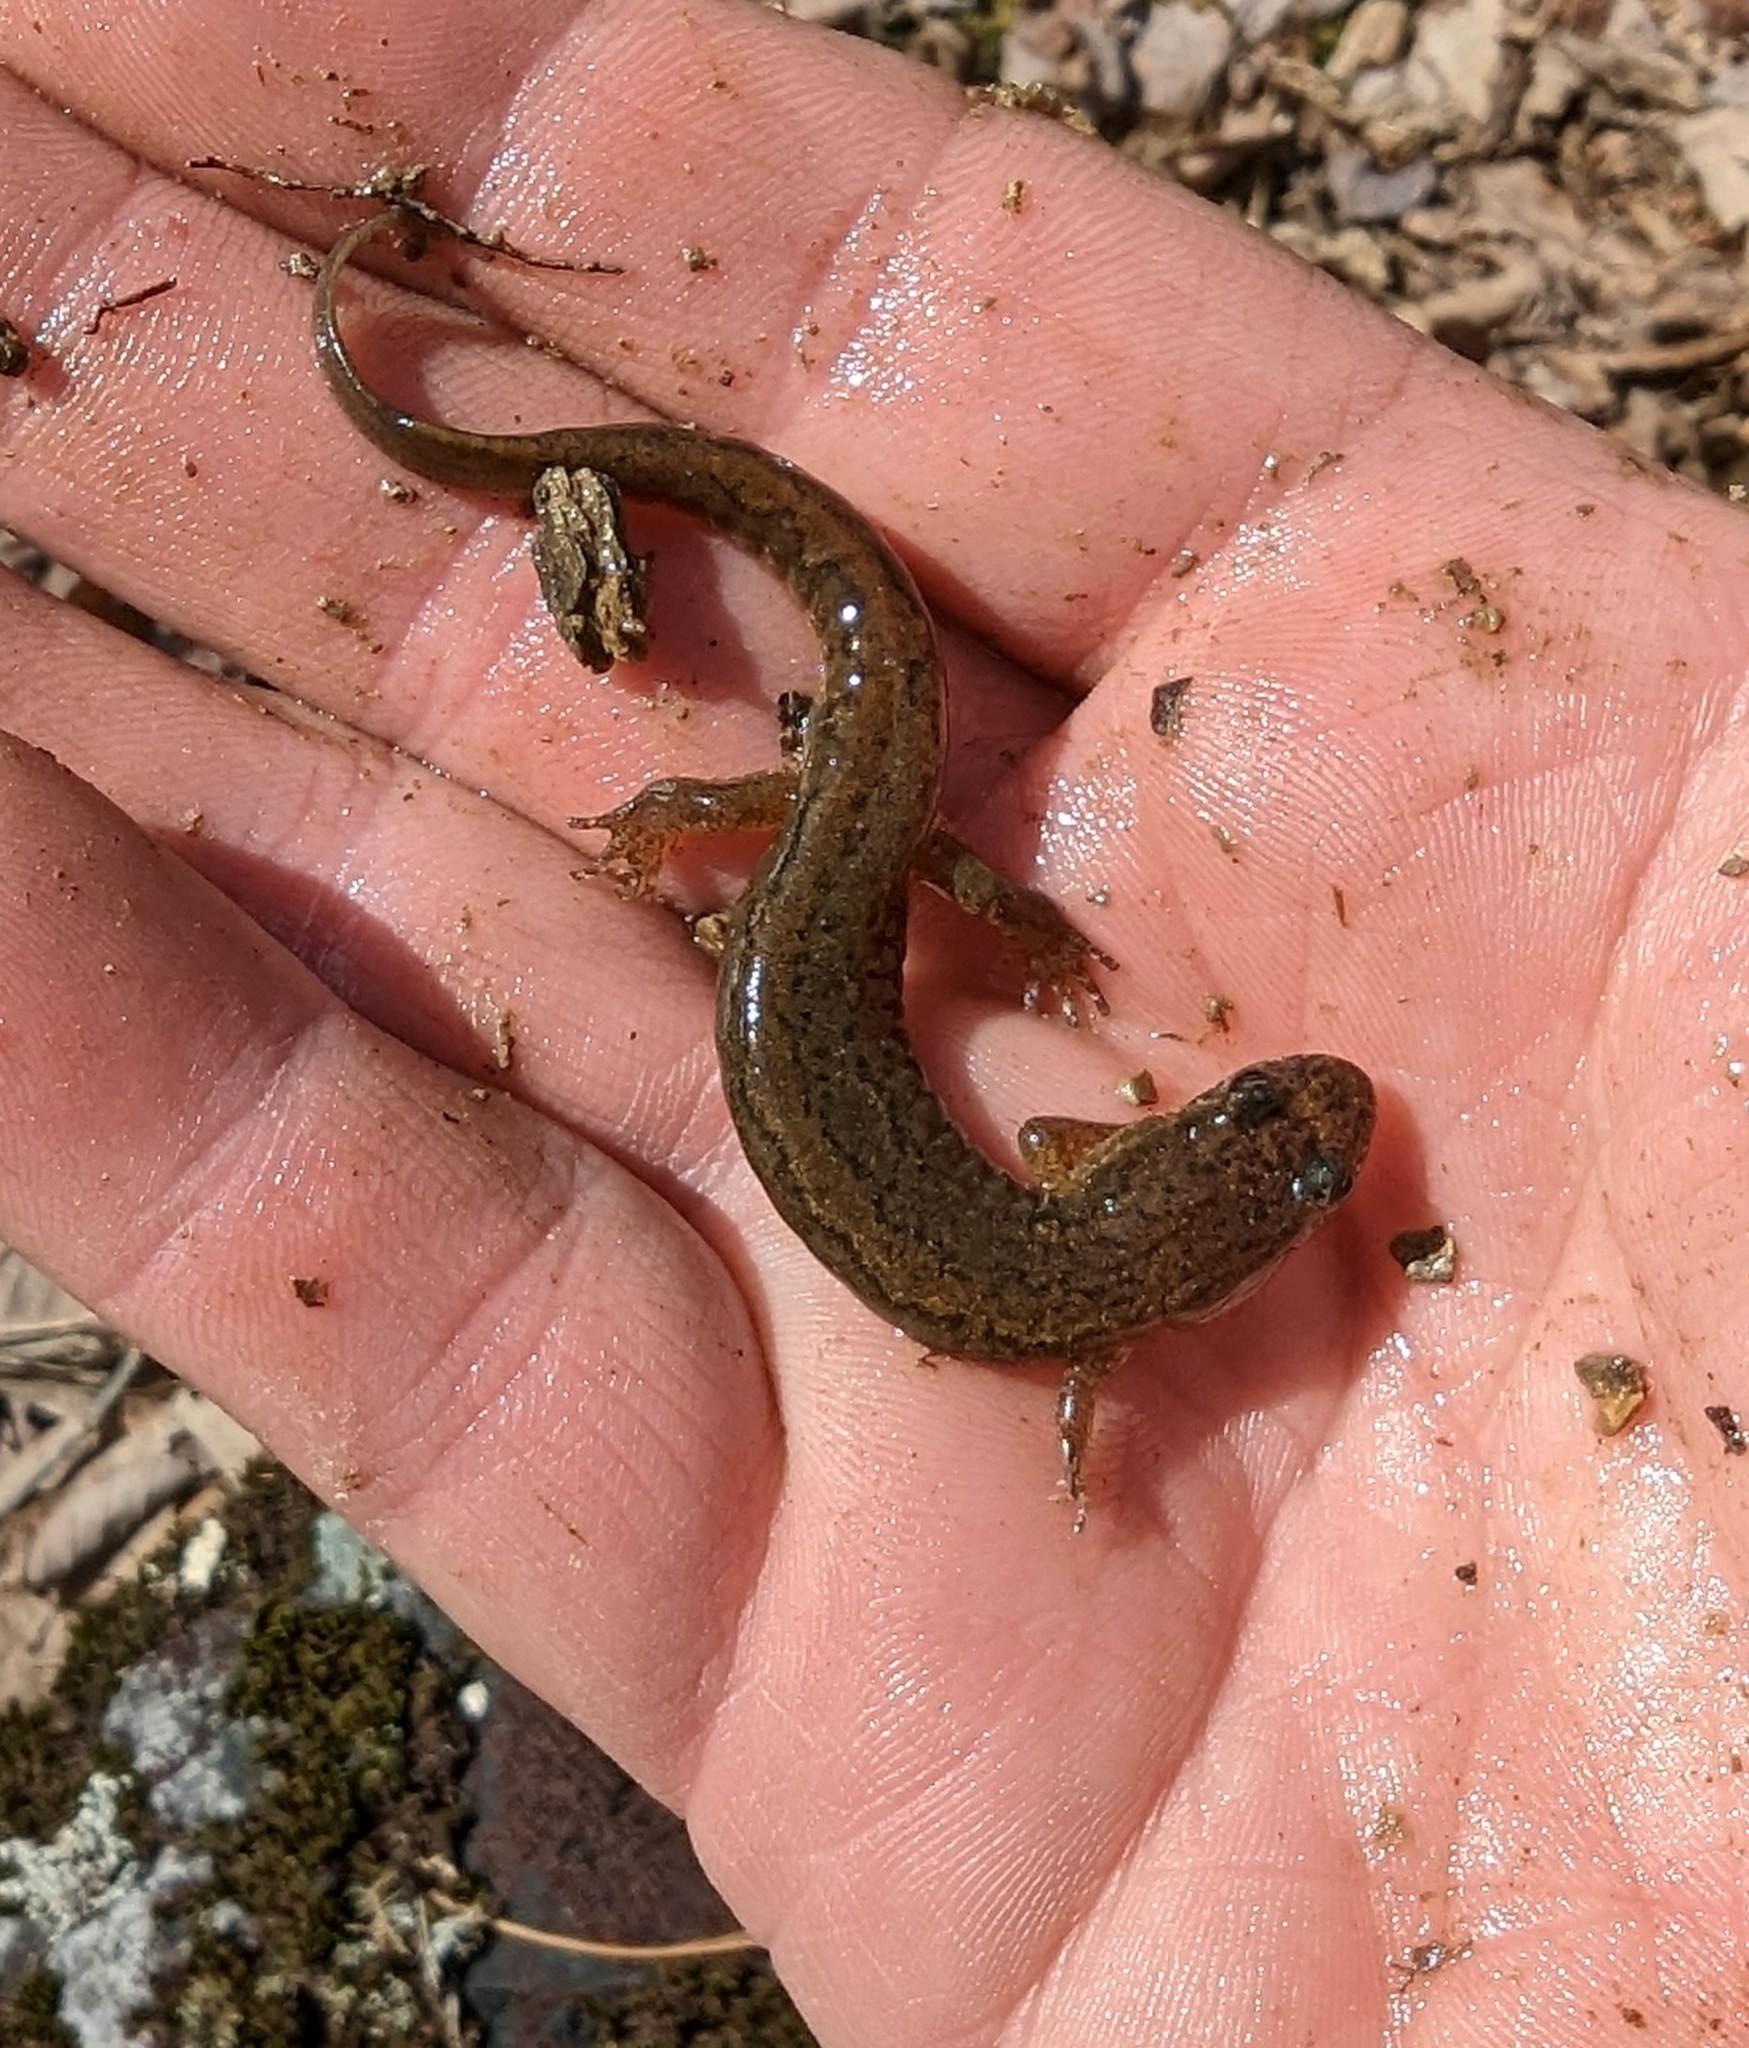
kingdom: Animalia
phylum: Chordata
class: Amphibia
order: Caudata
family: Plethodontidae
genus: Desmognathus
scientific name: Desmognathus fuscus
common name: Northern dusky salamander
